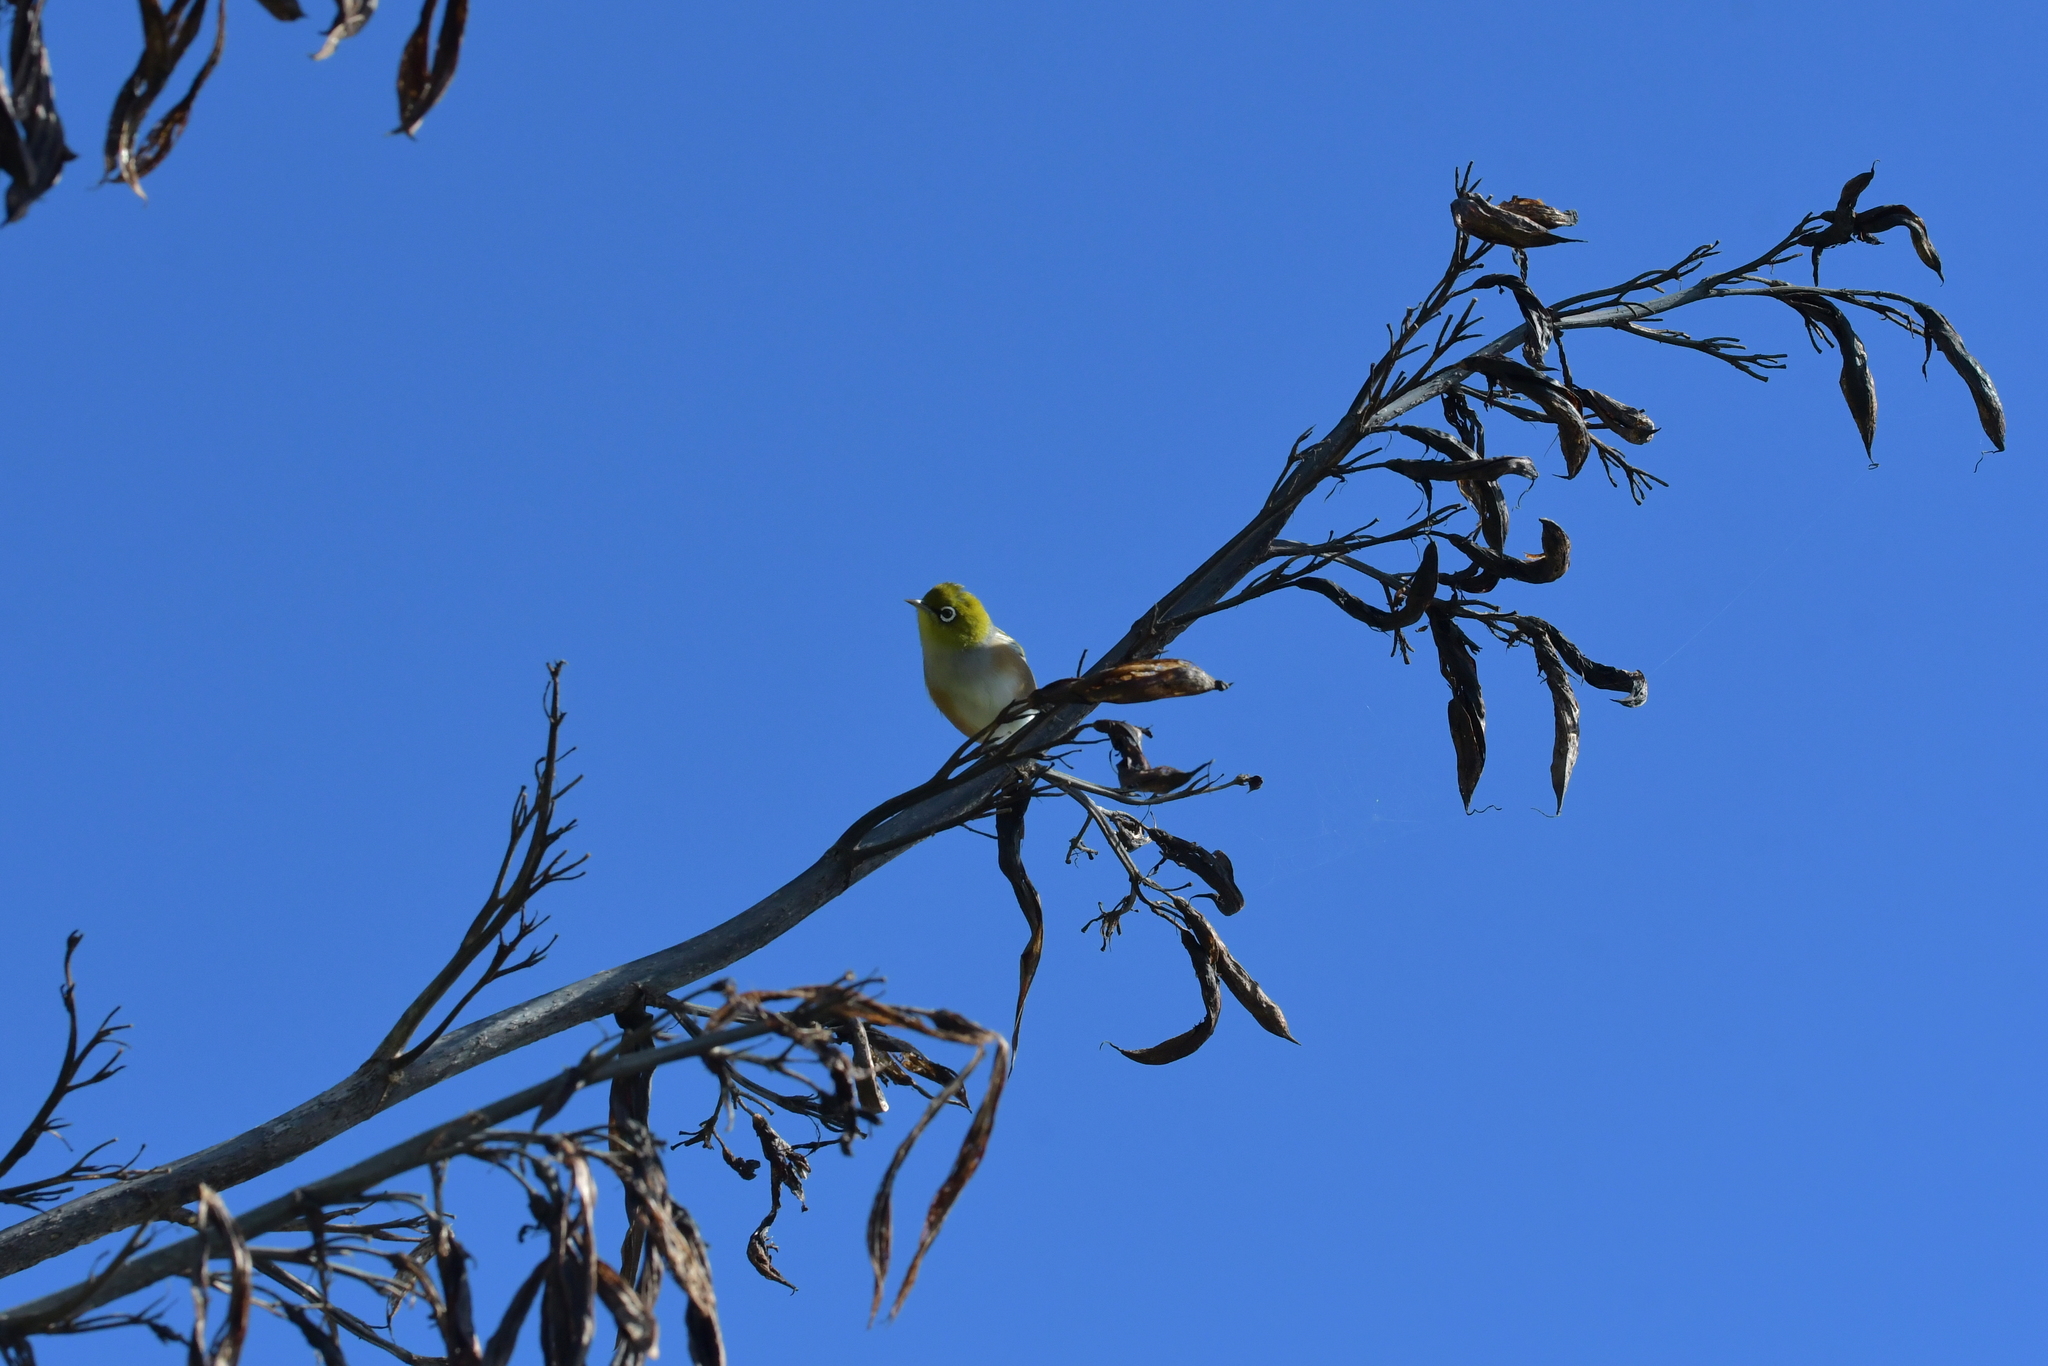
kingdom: Animalia
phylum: Chordata
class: Aves
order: Passeriformes
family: Zosteropidae
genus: Zosterops
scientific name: Zosterops lateralis
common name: Silvereye
